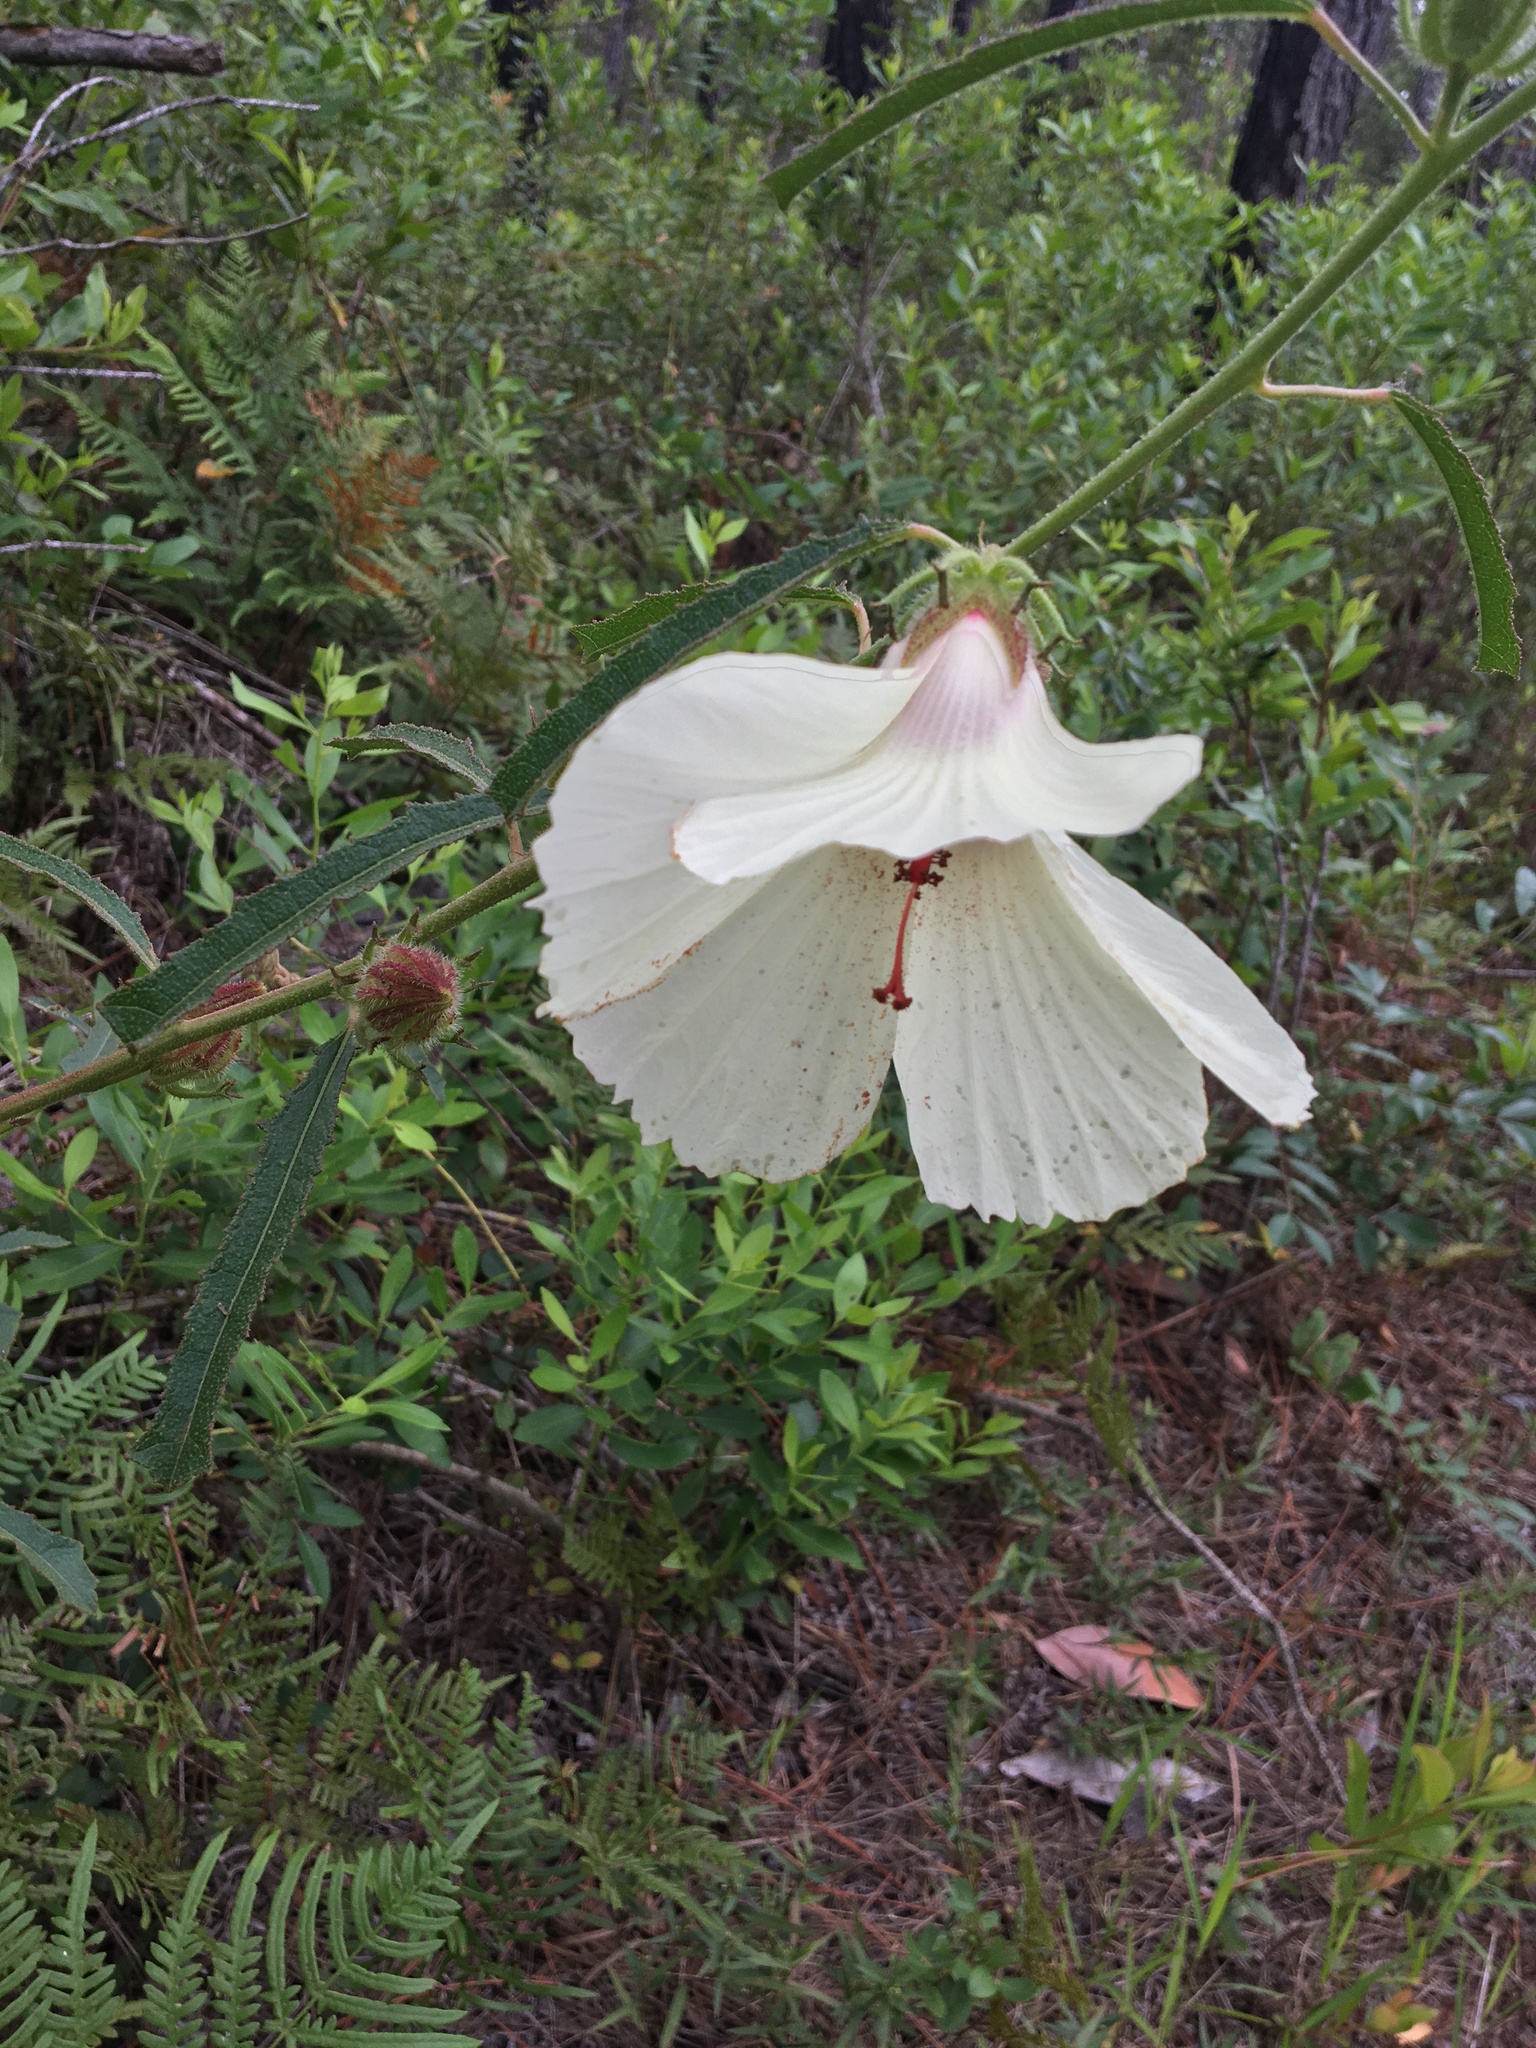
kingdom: Plantae
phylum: Tracheophyta
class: Magnoliopsida
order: Malvales
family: Malvaceae
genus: Hibiscus
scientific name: Hibiscus aculeatus
